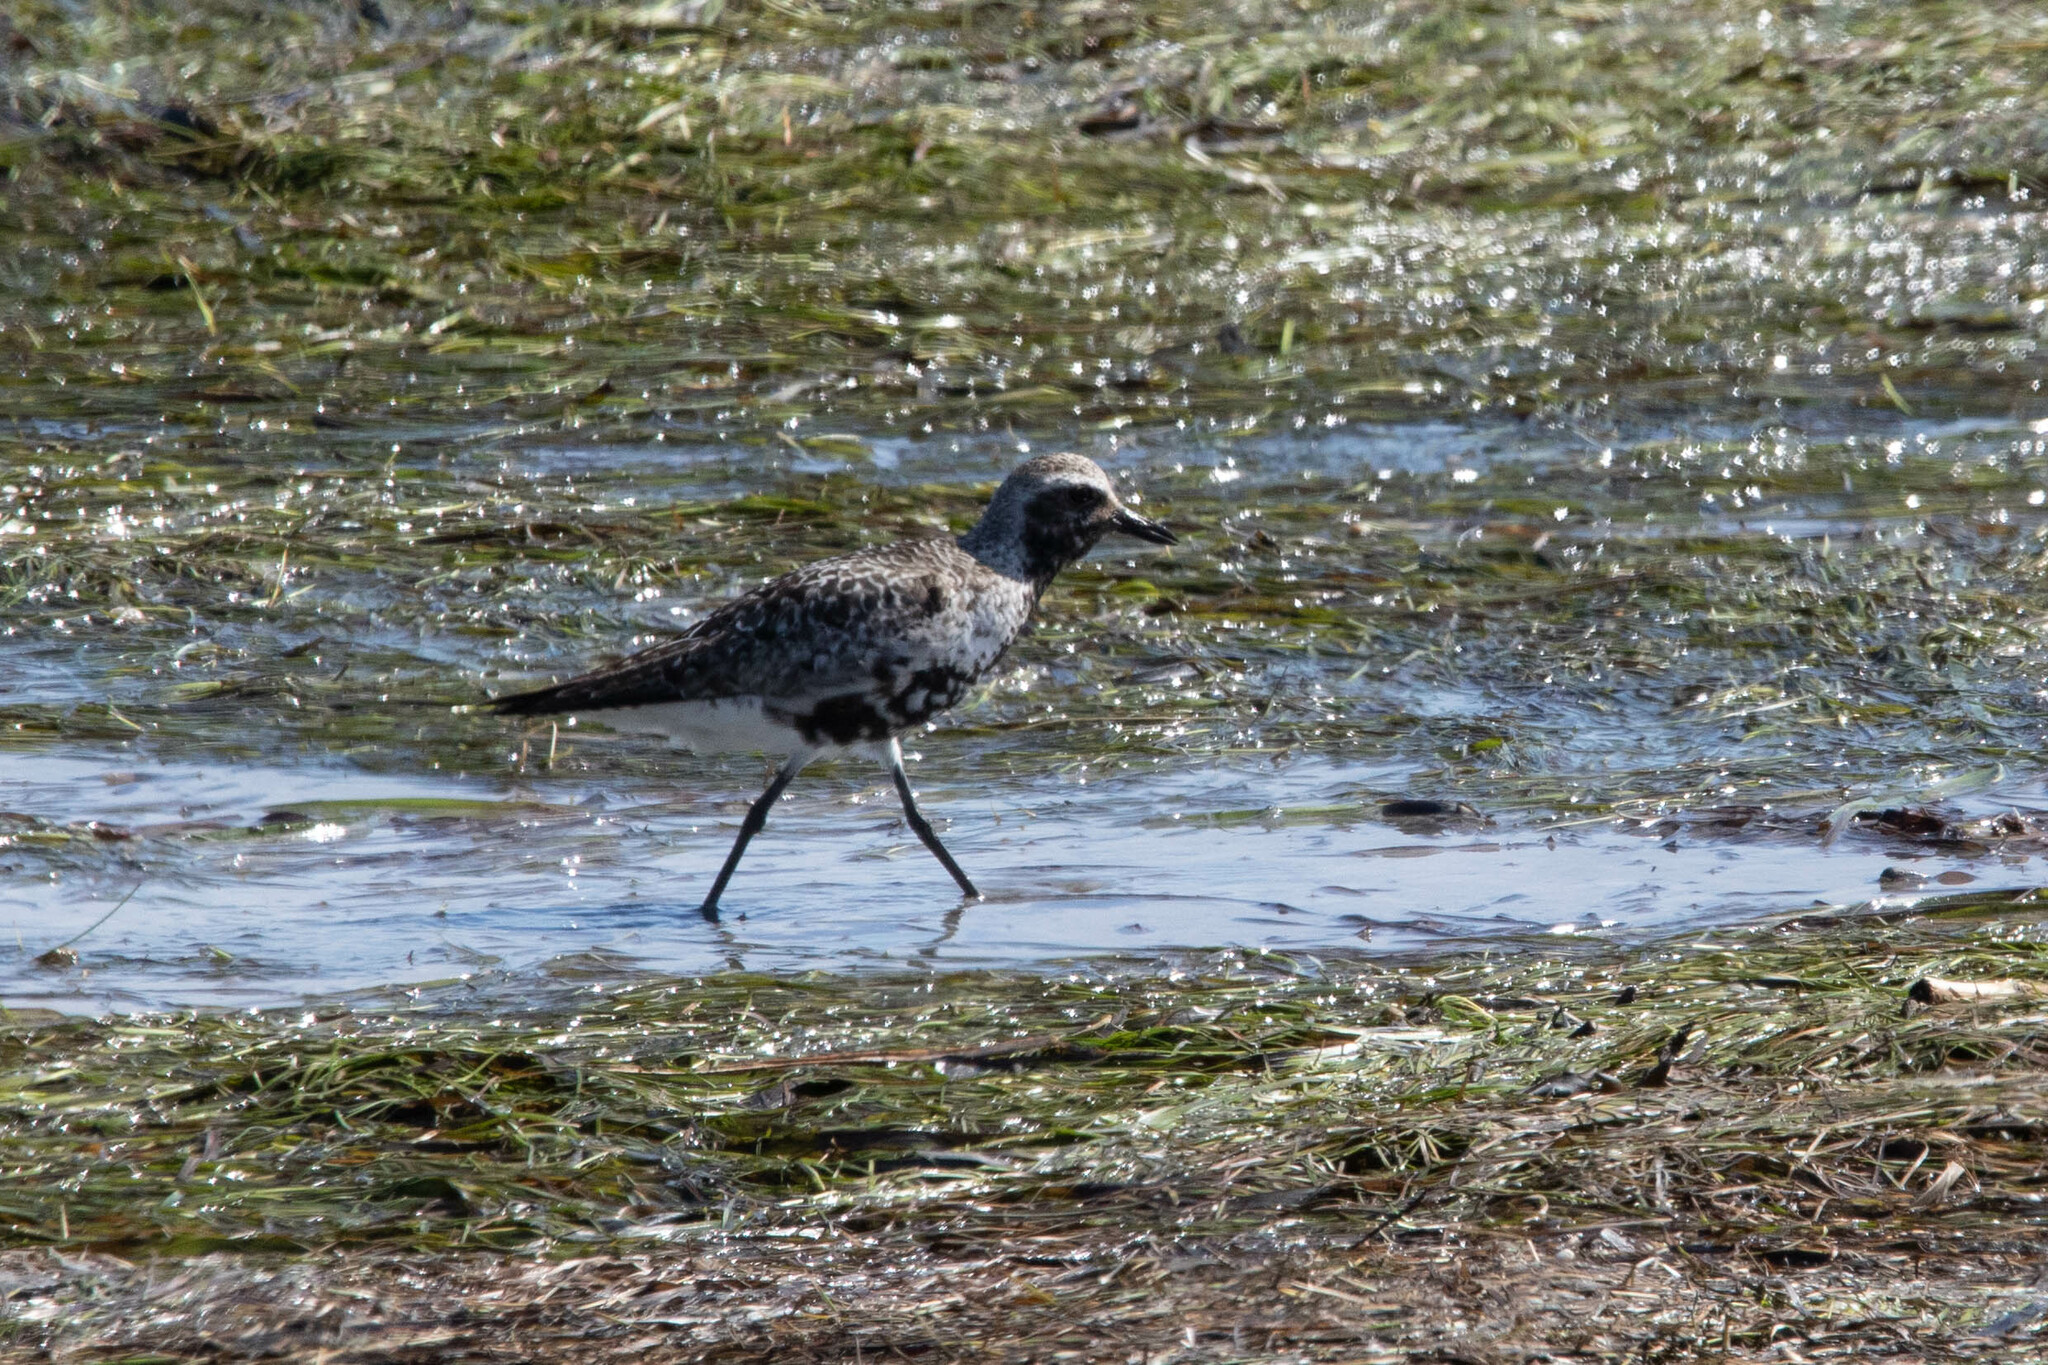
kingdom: Animalia
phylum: Chordata
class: Aves
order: Charadriiformes
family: Charadriidae
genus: Pluvialis
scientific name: Pluvialis squatarola
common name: Grey plover
